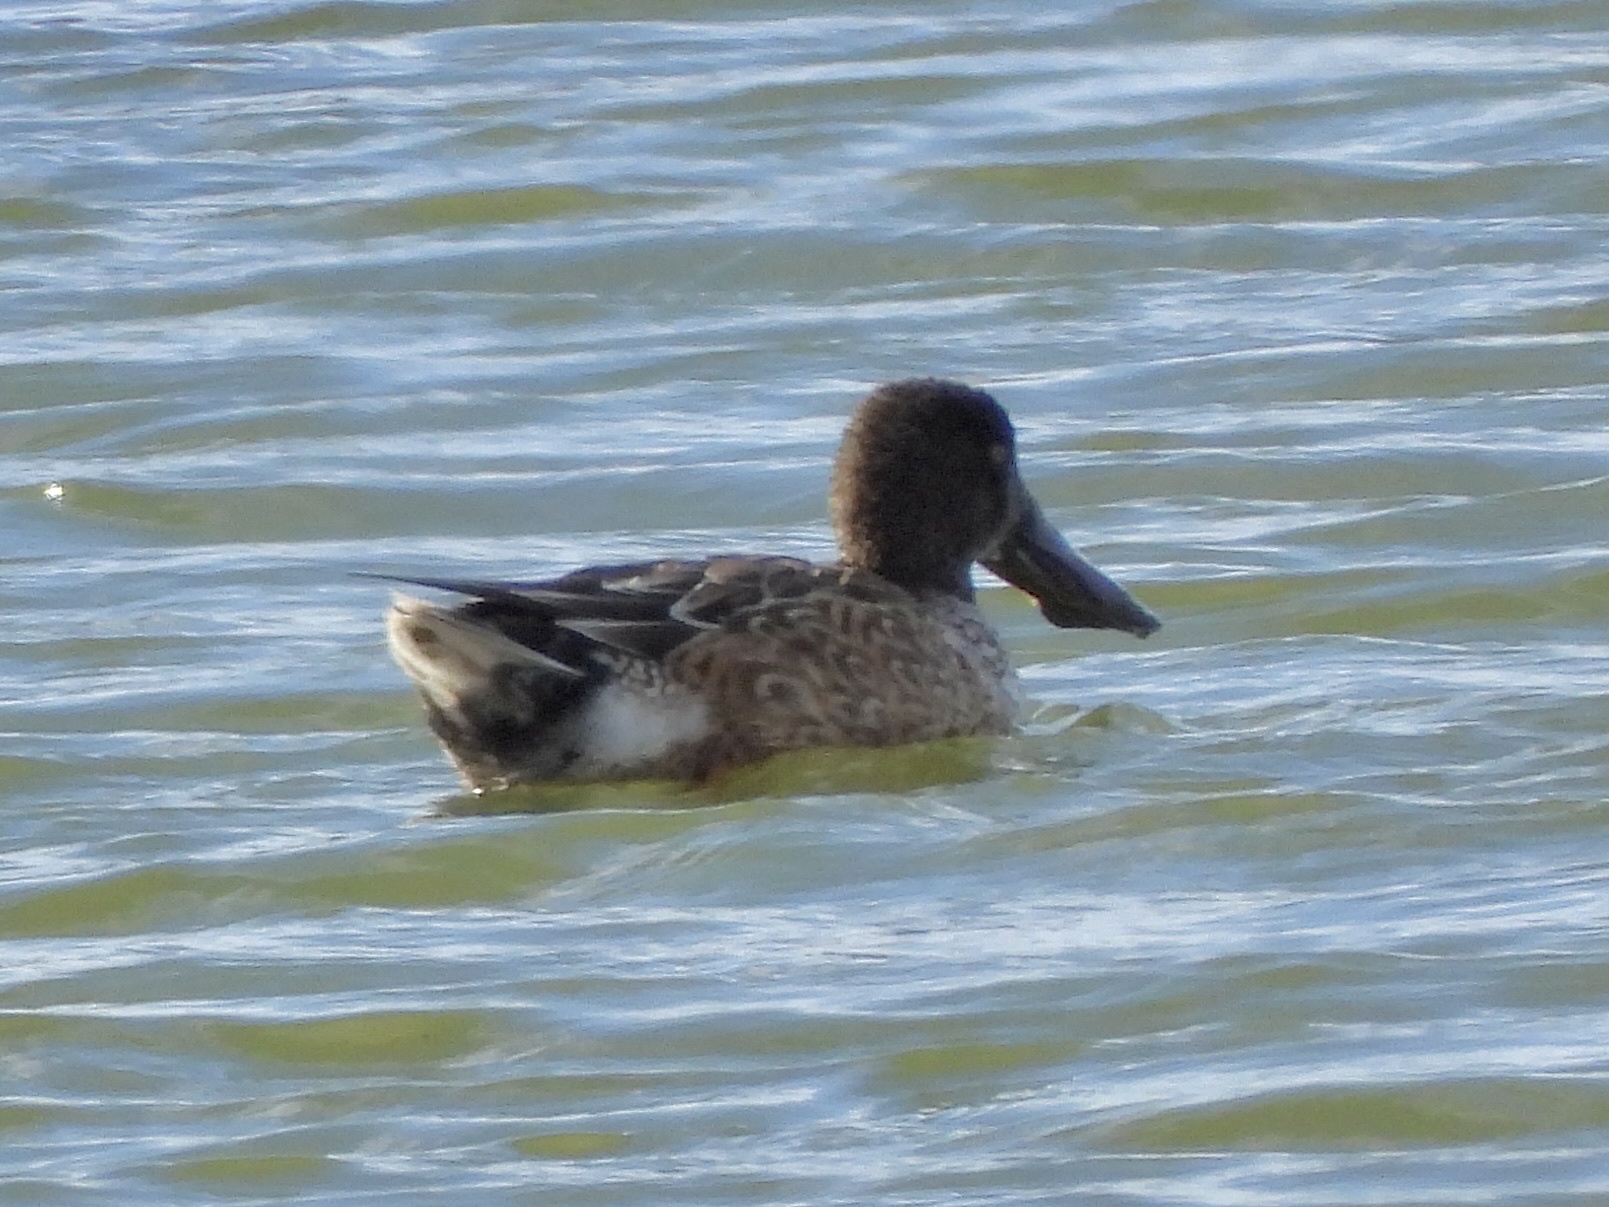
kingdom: Animalia
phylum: Chordata
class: Aves
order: Anseriformes
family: Anatidae
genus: Spatula
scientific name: Spatula clypeata
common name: Northern shoveler
